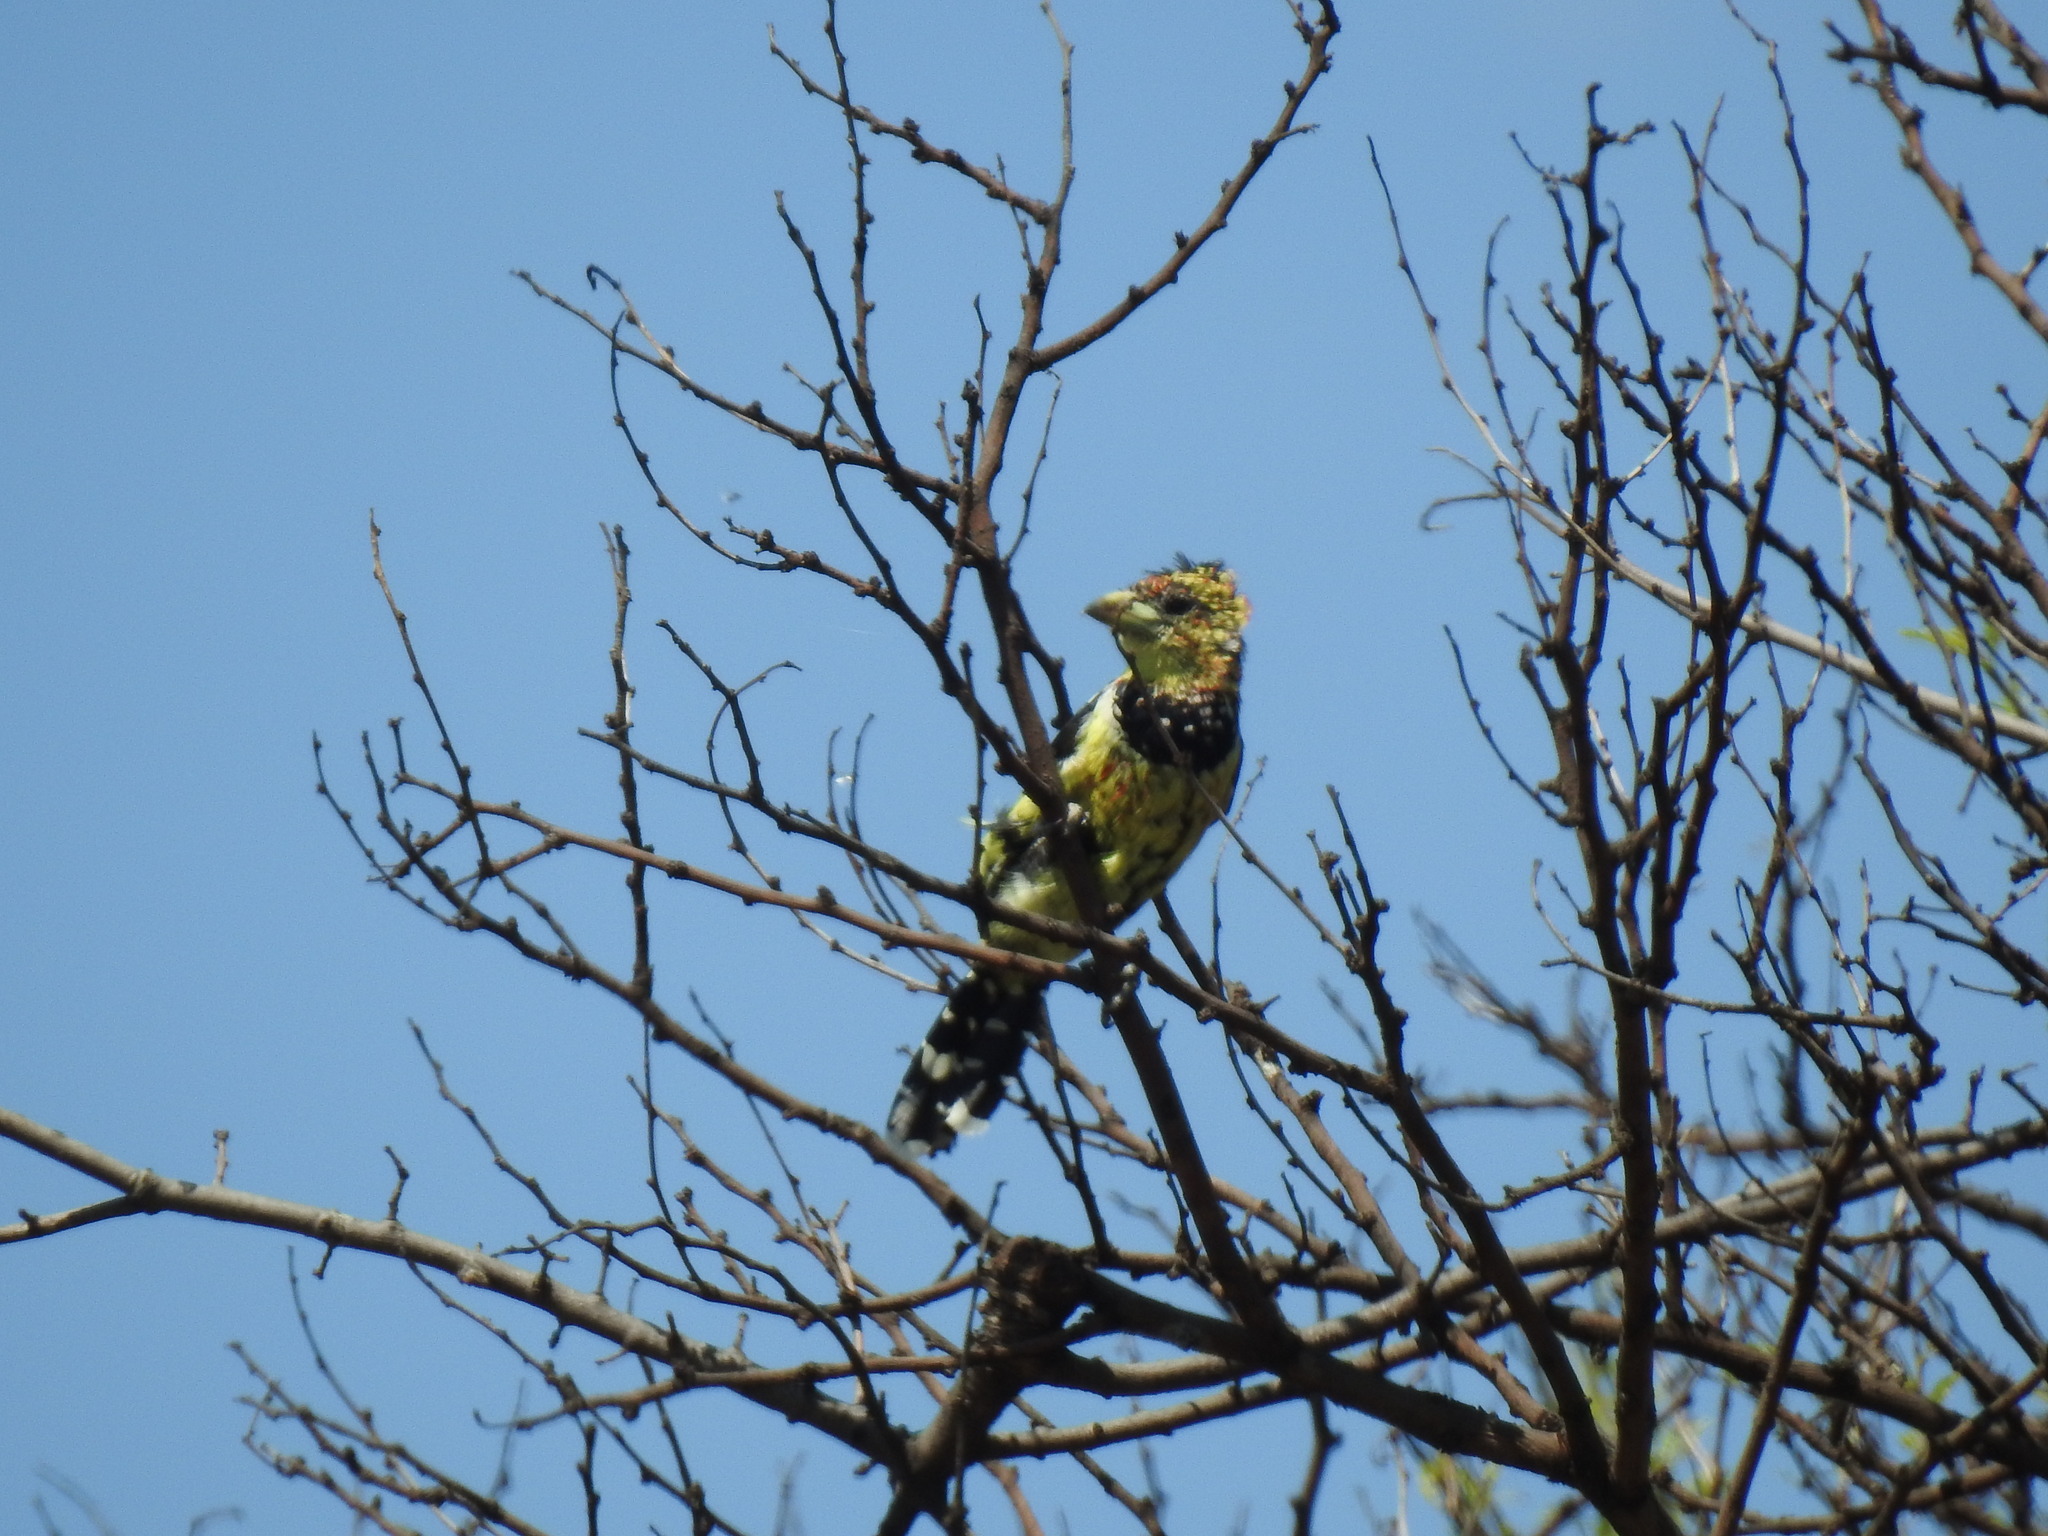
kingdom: Animalia
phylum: Chordata
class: Aves
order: Piciformes
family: Lybiidae
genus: Trachyphonus
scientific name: Trachyphonus vaillantii
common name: Crested barbet
